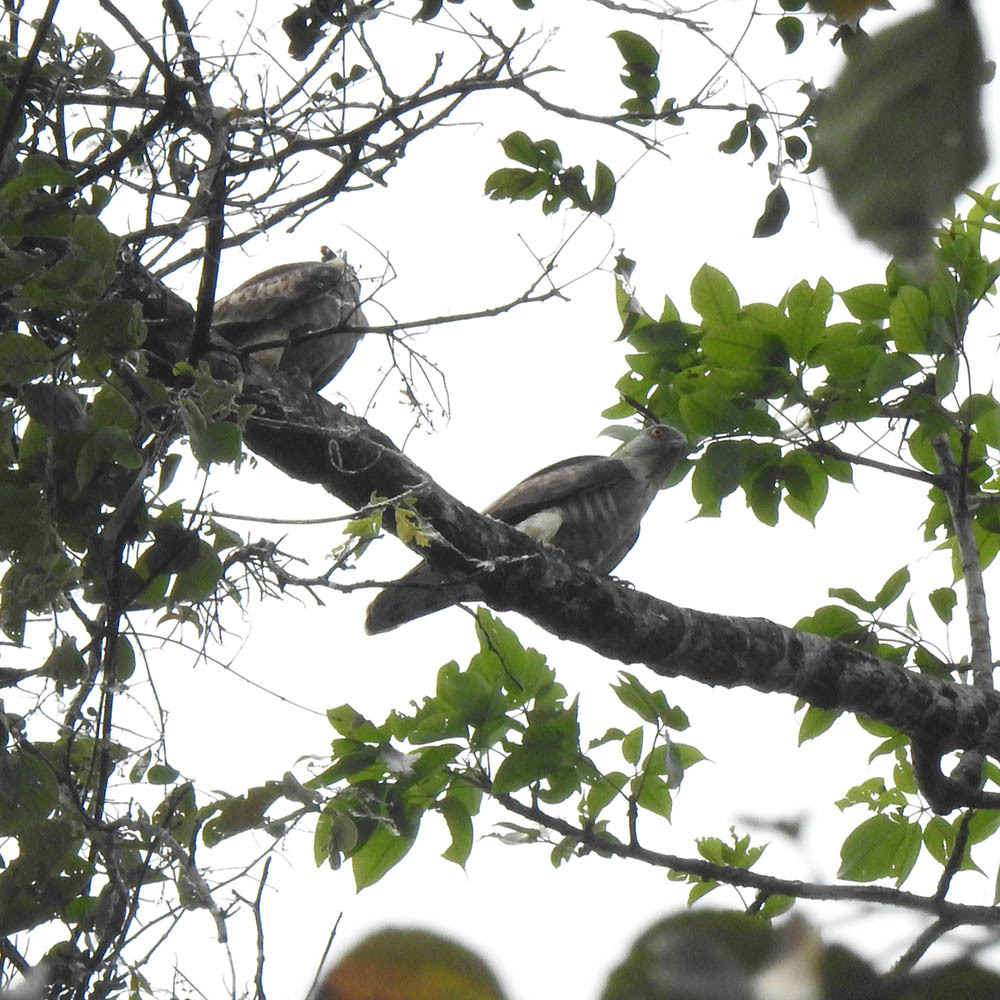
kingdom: Animalia
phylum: Chordata
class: Aves
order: Accipitriformes
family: Accipitridae
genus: Aviceda
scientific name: Aviceda jerdoni
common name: Jerdon's baza
